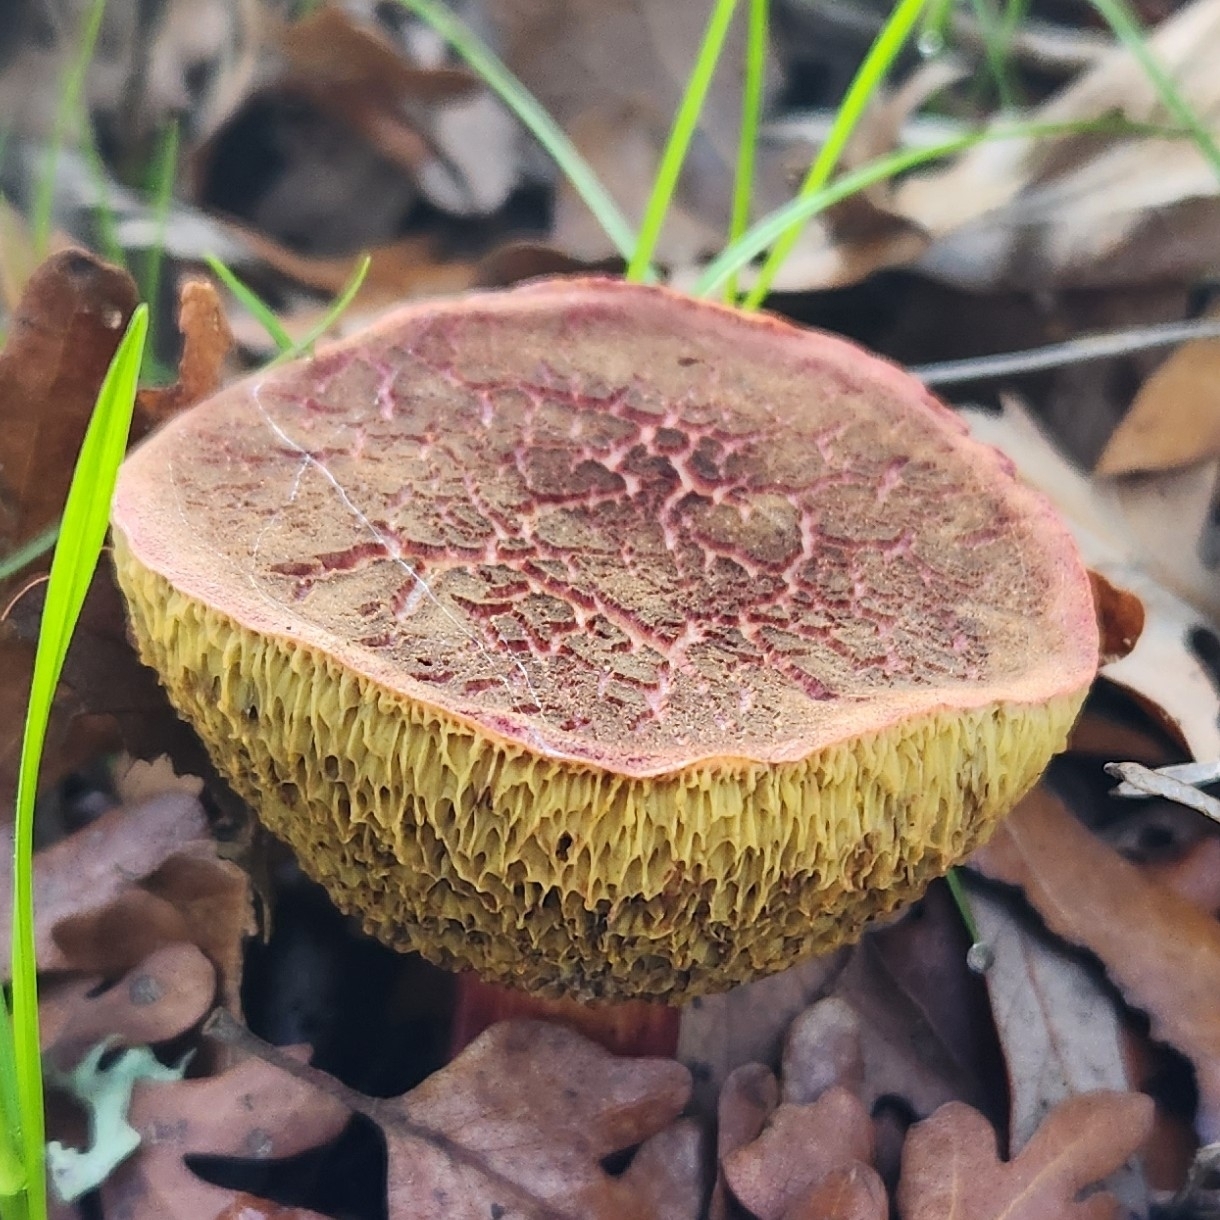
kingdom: Fungi
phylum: Basidiomycota
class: Agaricomycetes
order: Boletales
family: Boletaceae
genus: Xerocomellus
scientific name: Xerocomellus chrysenteron
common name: Red-cracking bolete
